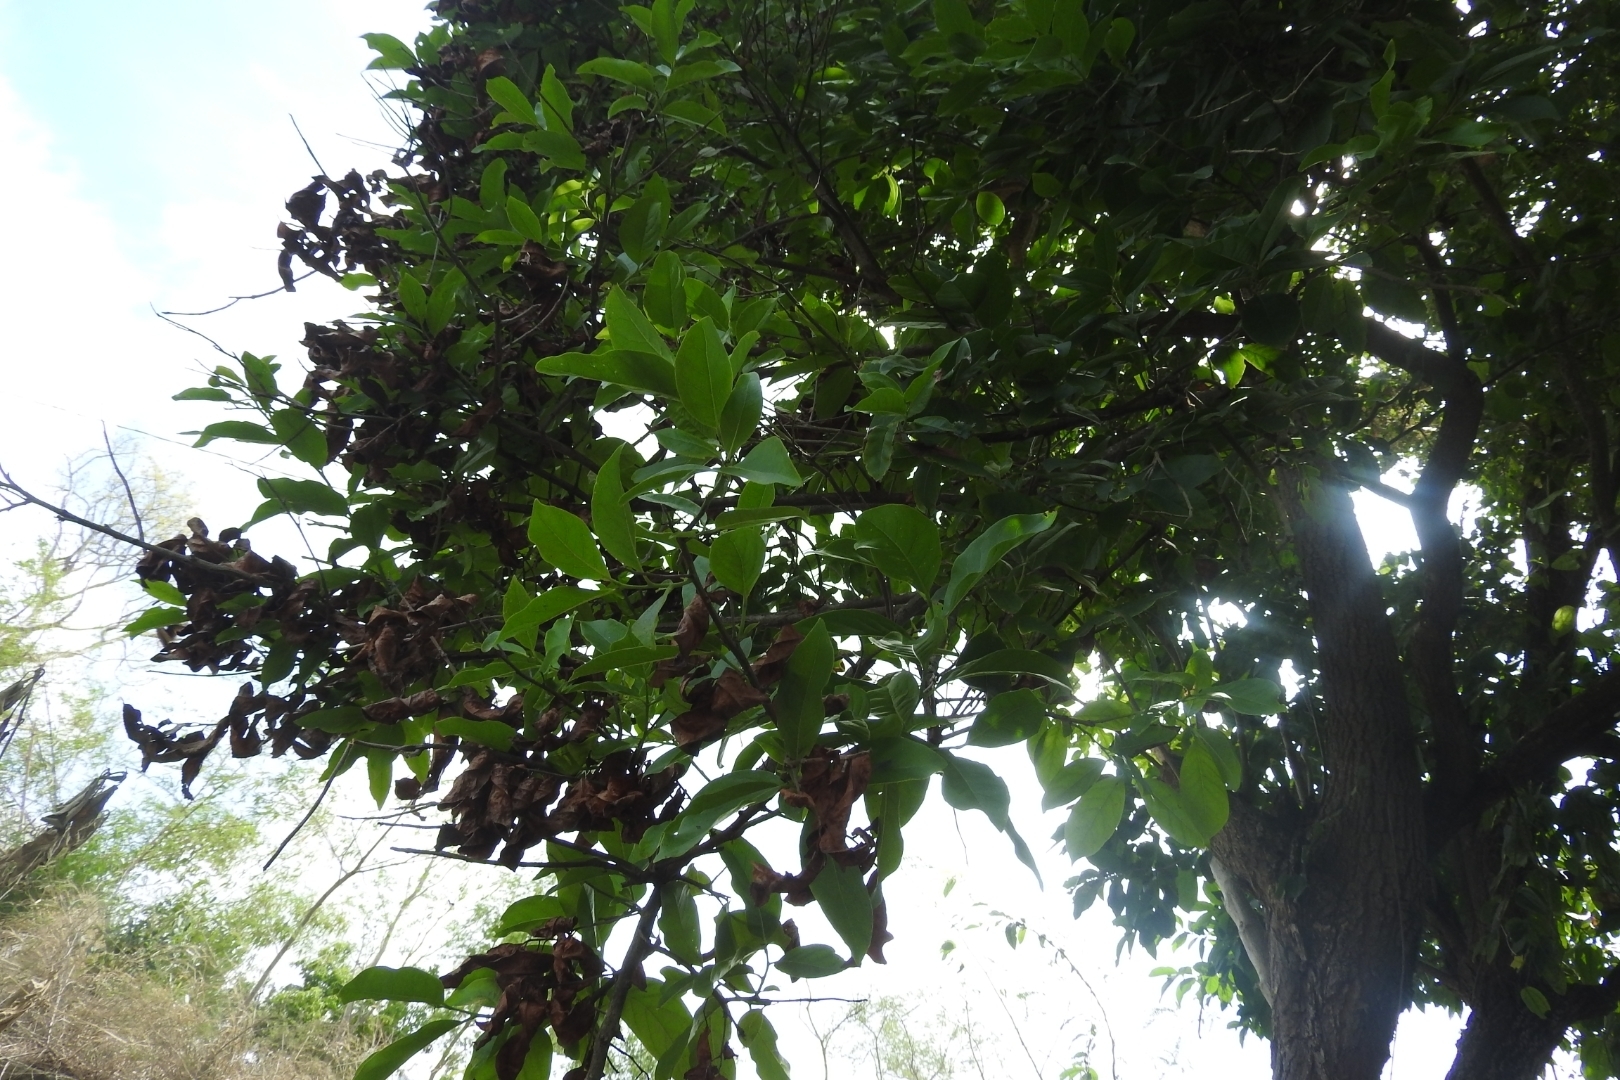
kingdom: Plantae
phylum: Tracheophyta
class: Magnoliopsida
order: Sapindales
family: Meliaceae
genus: Cedrela
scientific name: Cedrela odorata
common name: Red cedar
